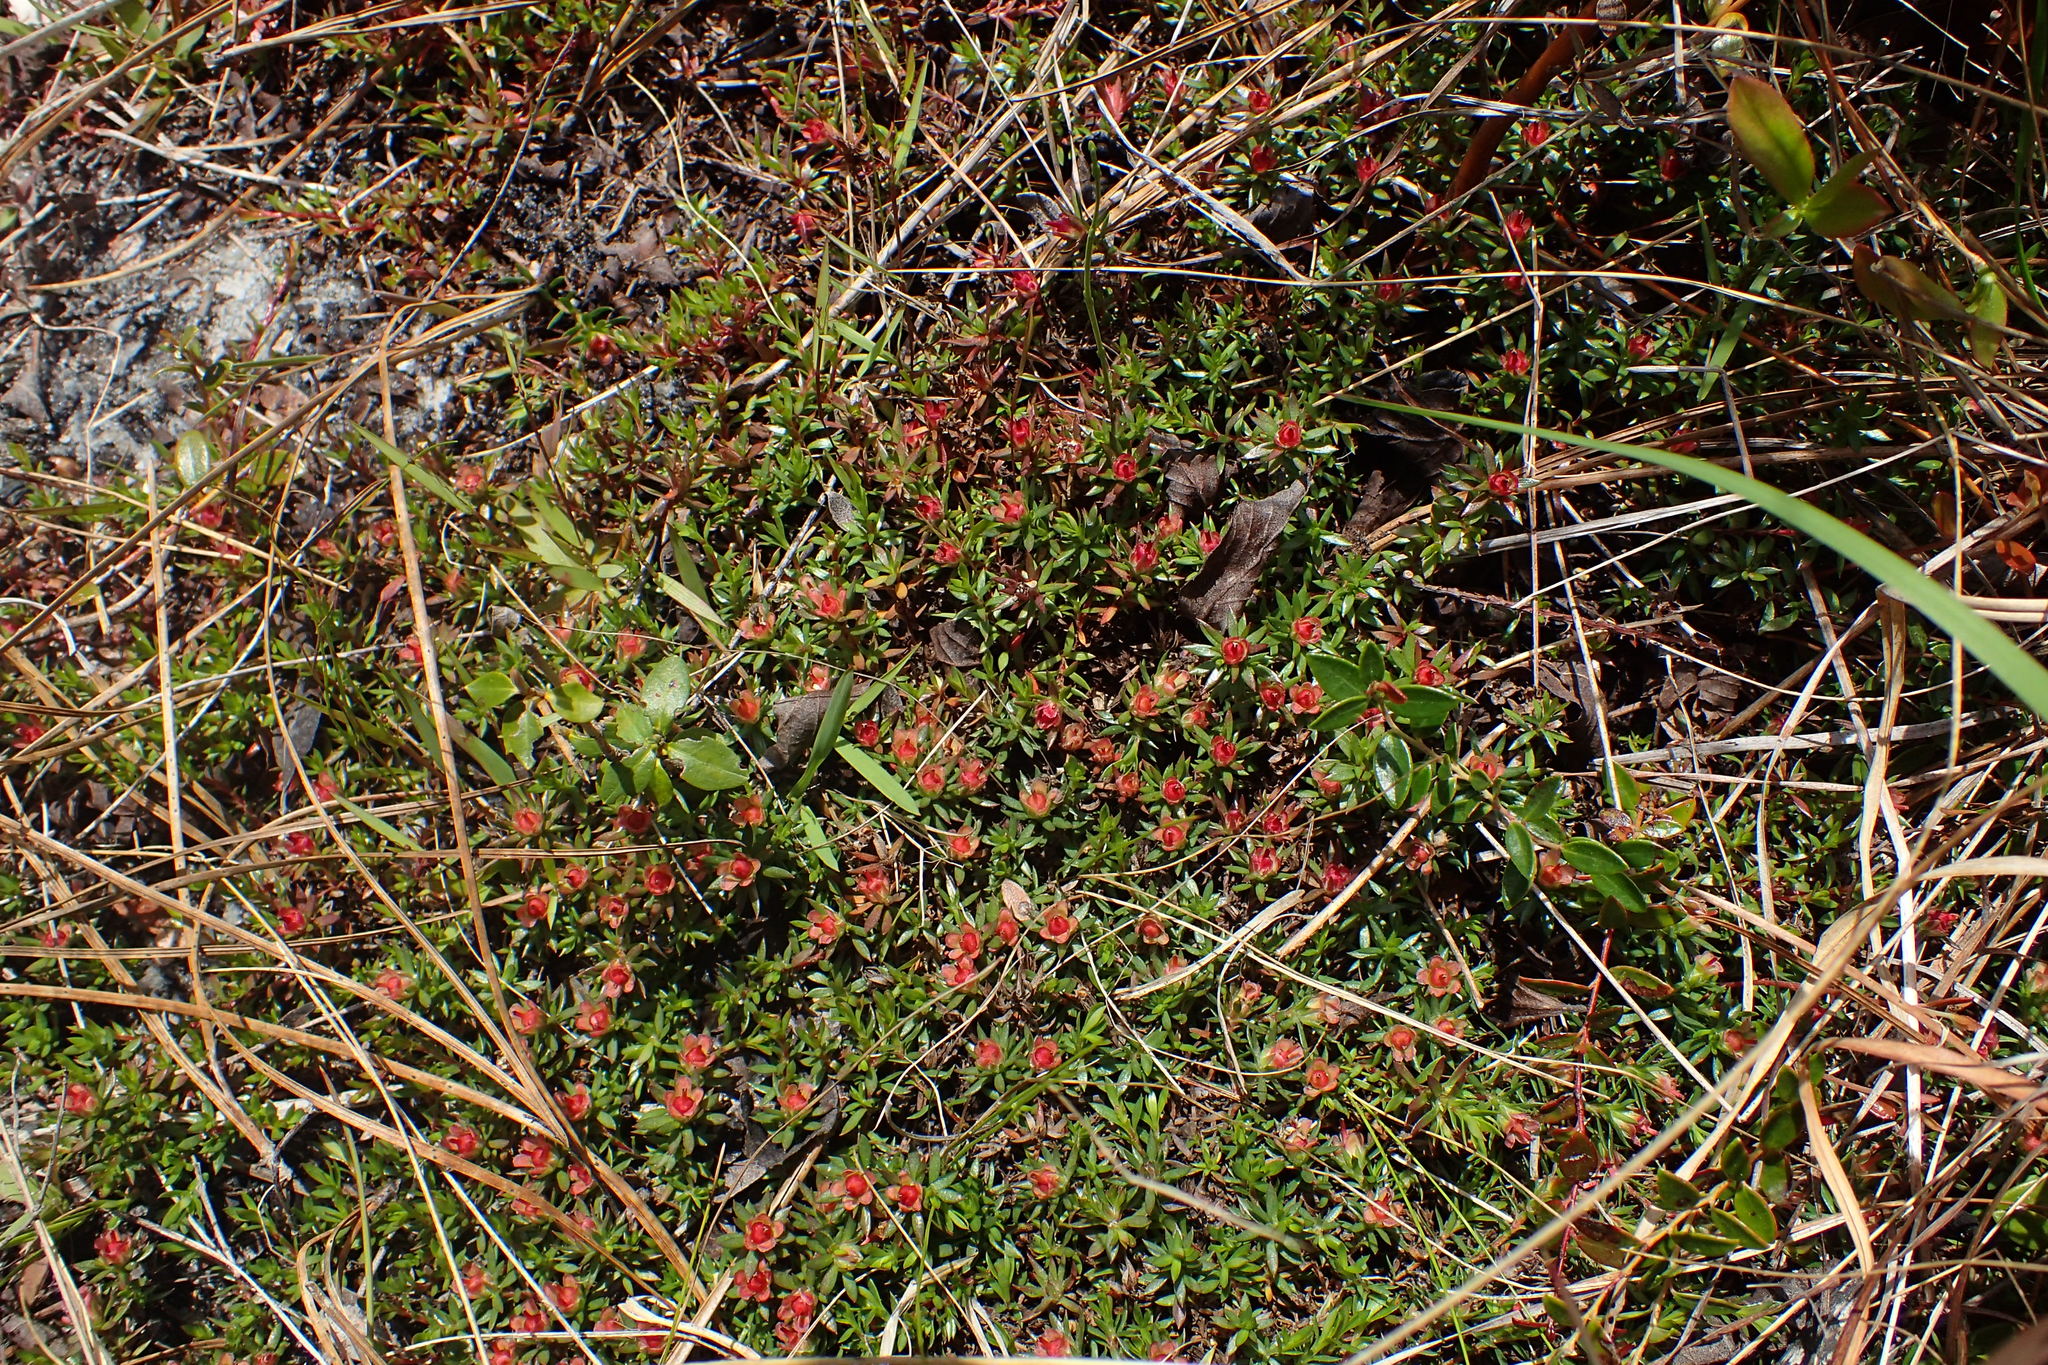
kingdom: Plantae
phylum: Tracheophyta
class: Magnoliopsida
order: Ericales
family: Diapensiaceae
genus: Pyxidanthera
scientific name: Pyxidanthera barbulata
